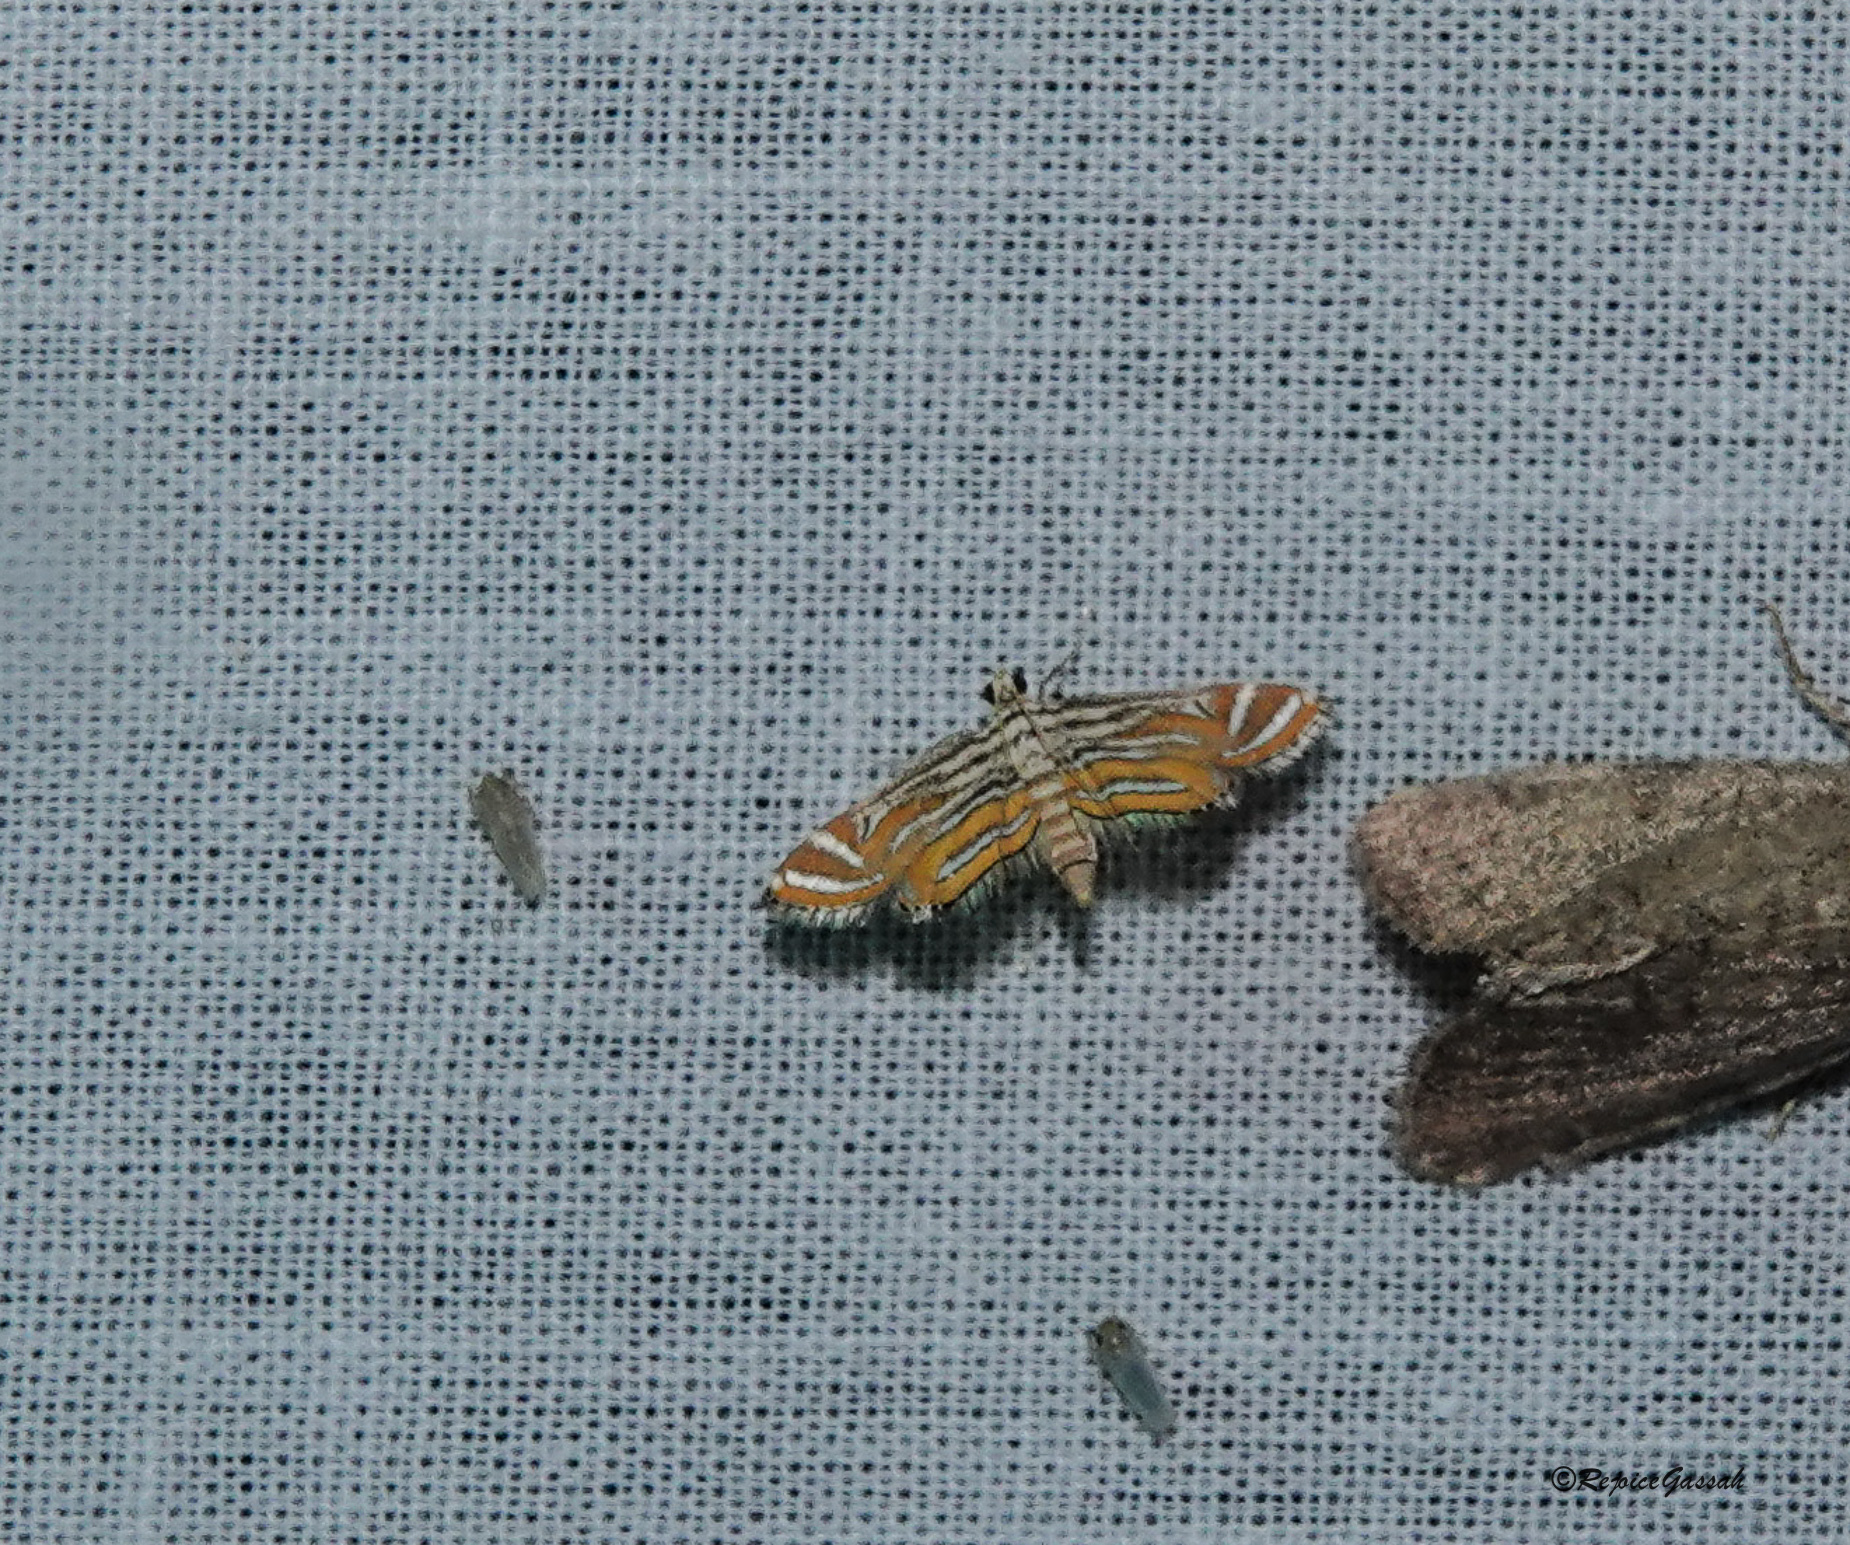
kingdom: Animalia
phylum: Arthropoda
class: Insecta
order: Lepidoptera
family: Crambidae
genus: Parapoynx
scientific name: Parapoynx bilinealis
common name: Streaked china-mark
